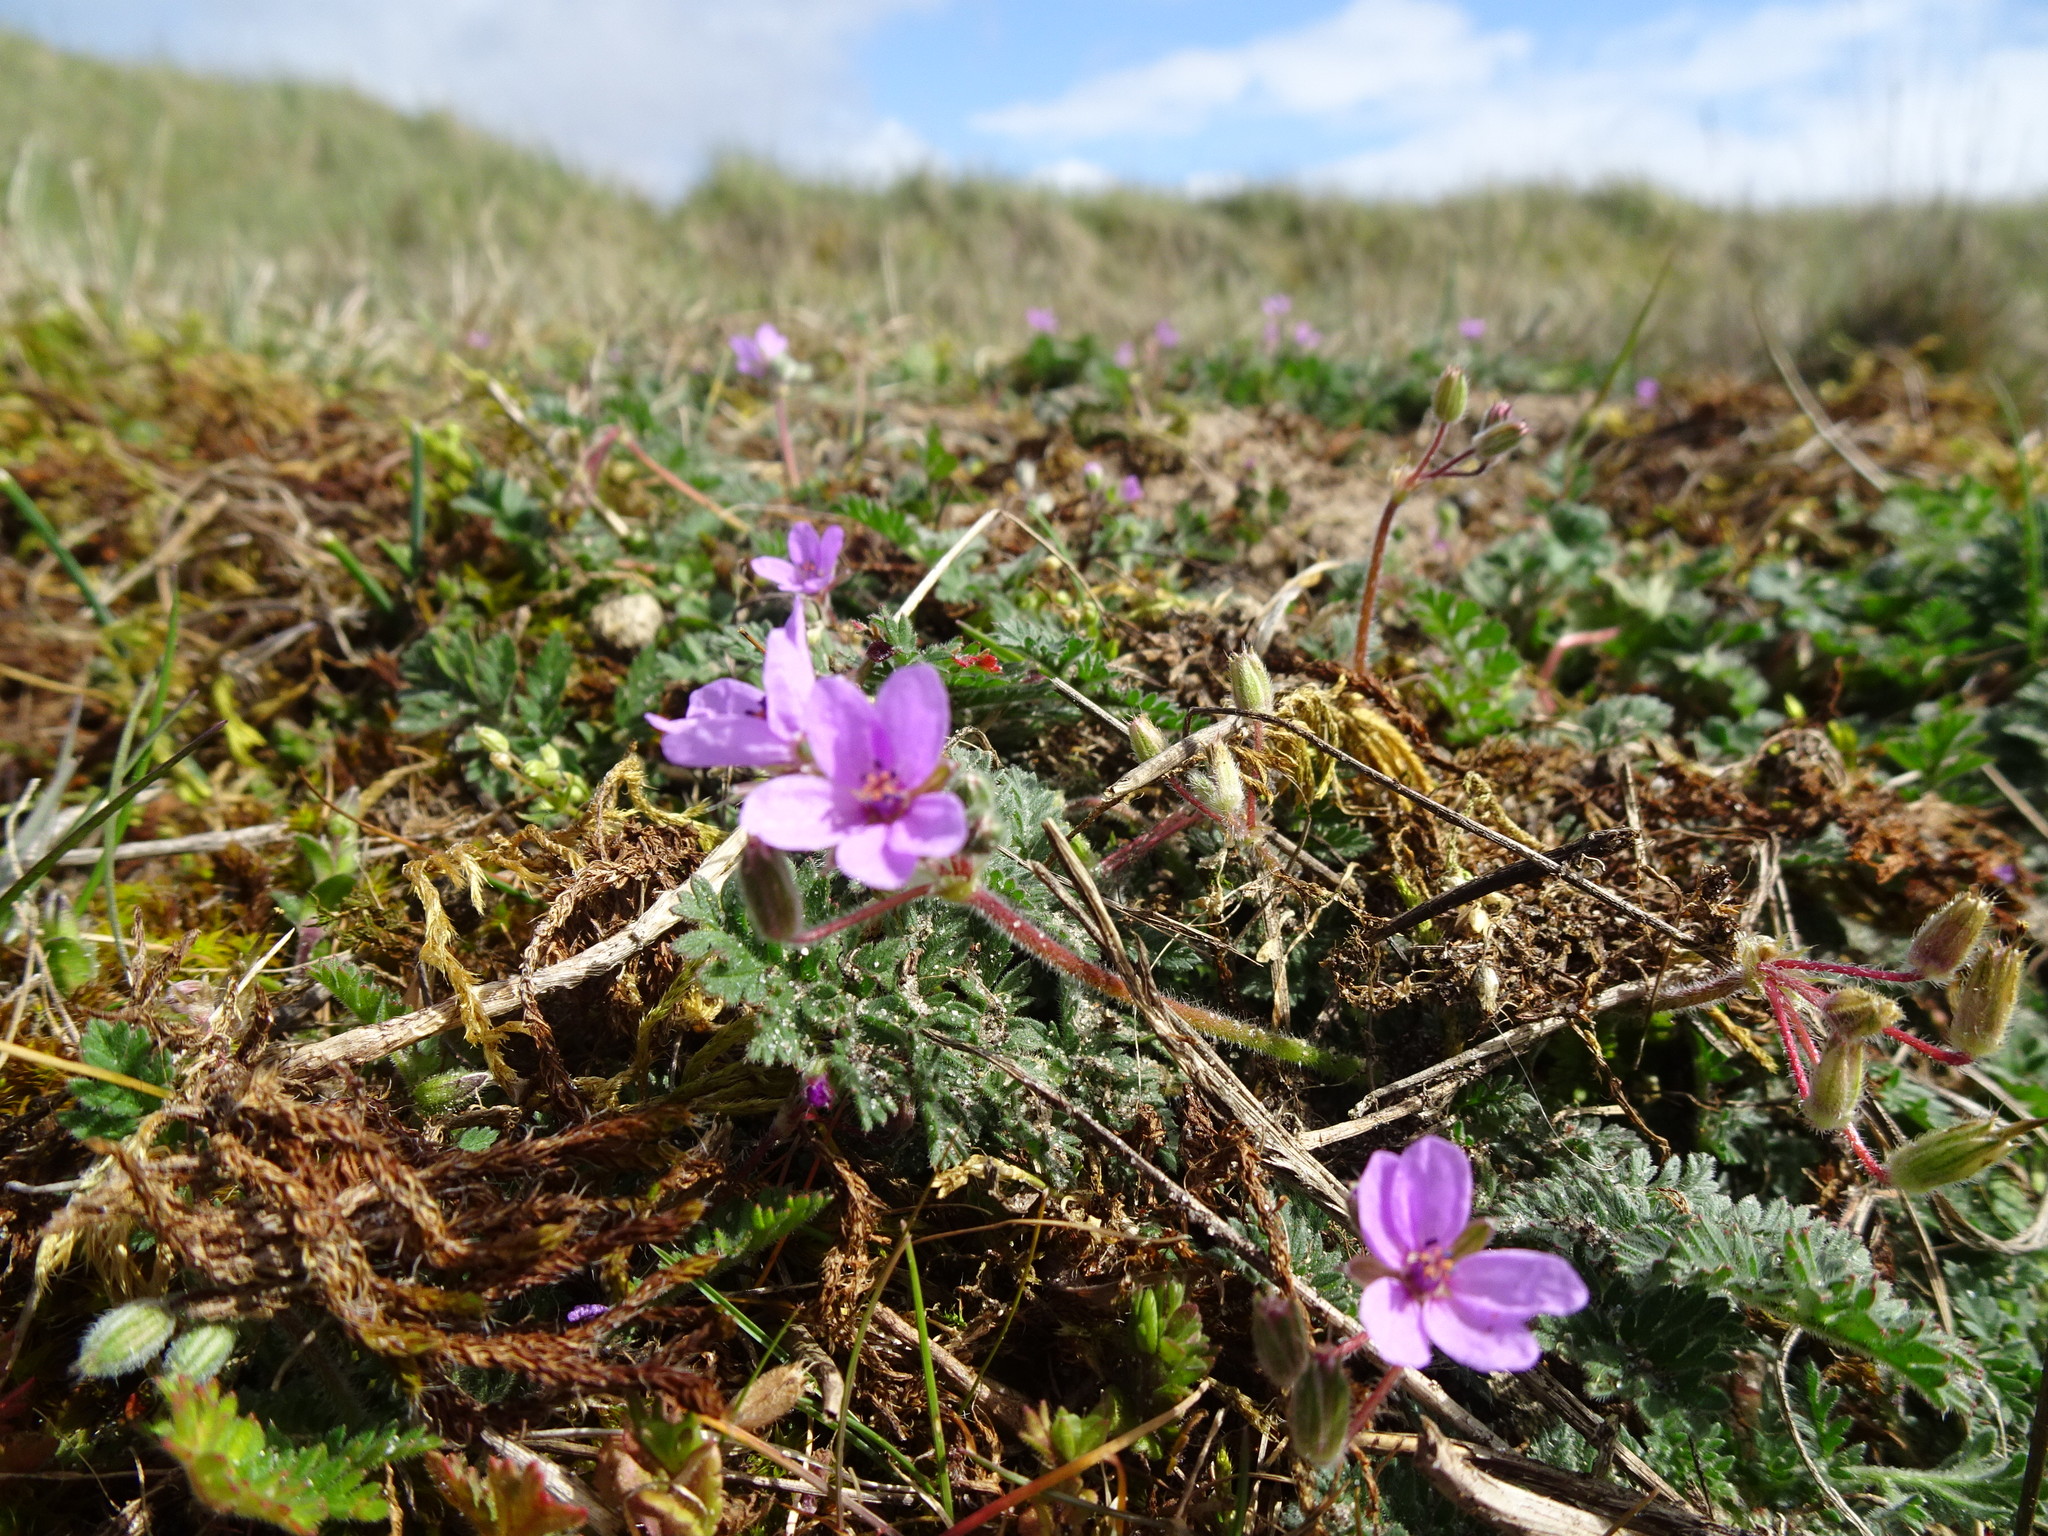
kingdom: Plantae
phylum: Tracheophyta
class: Magnoliopsida
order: Geraniales
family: Geraniaceae
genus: Erodium
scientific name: Erodium cicutarium
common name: Common stork's-bill
